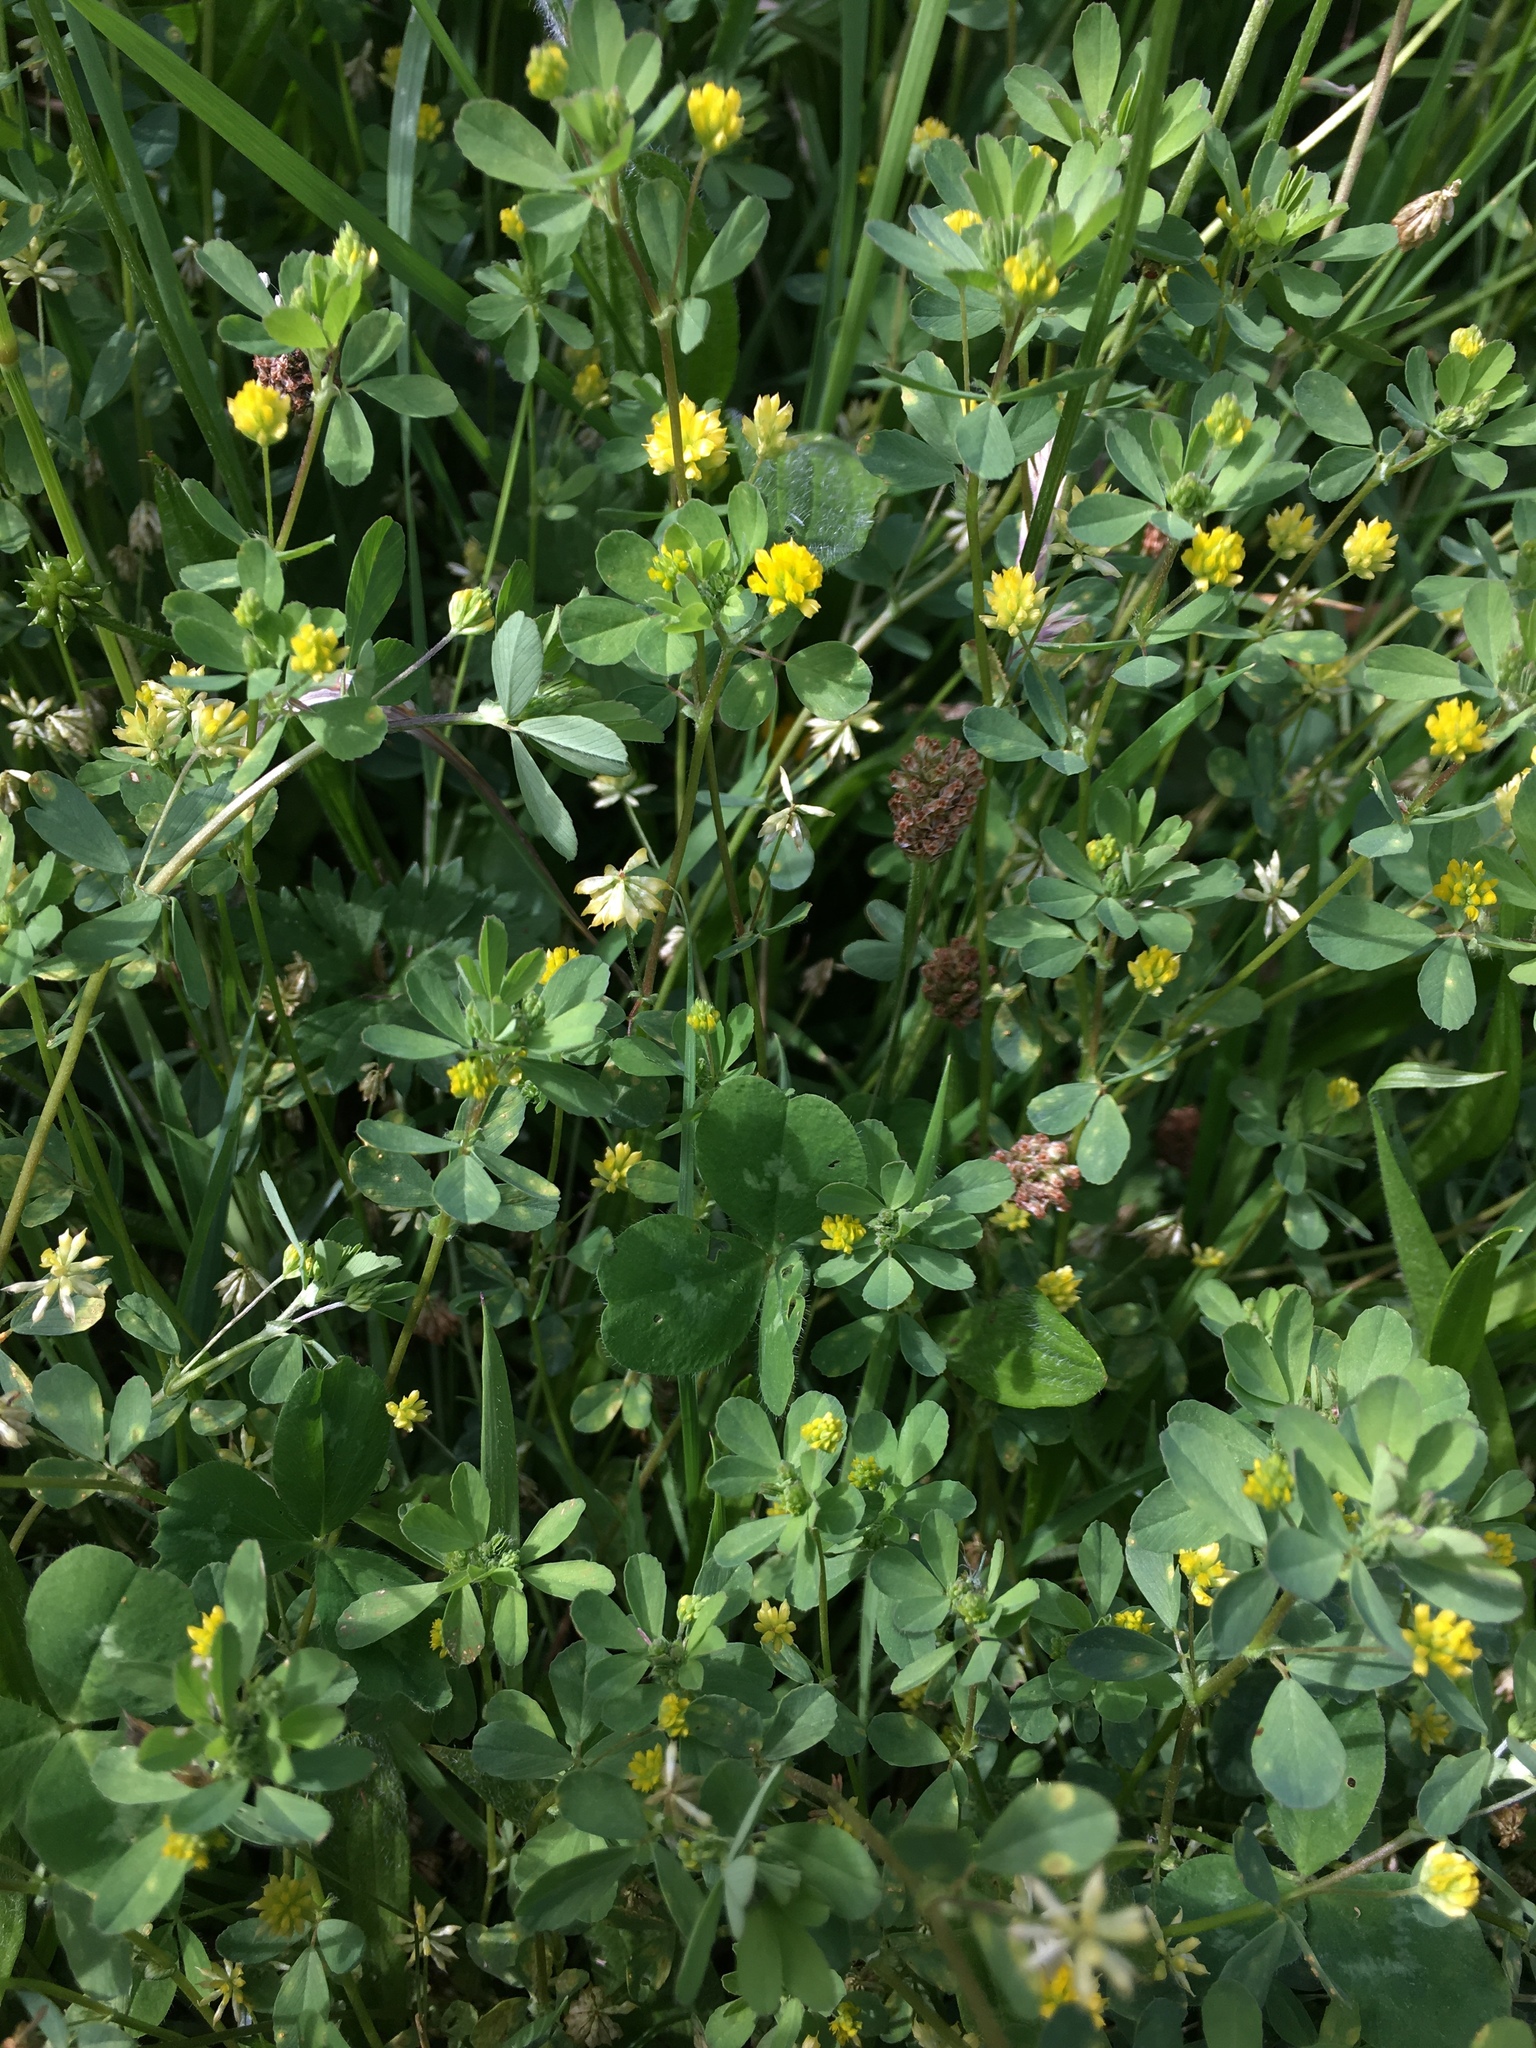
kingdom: Plantae
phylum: Tracheophyta
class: Magnoliopsida
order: Fabales
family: Fabaceae
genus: Trifolium
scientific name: Trifolium dubium
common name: Suckling clover
